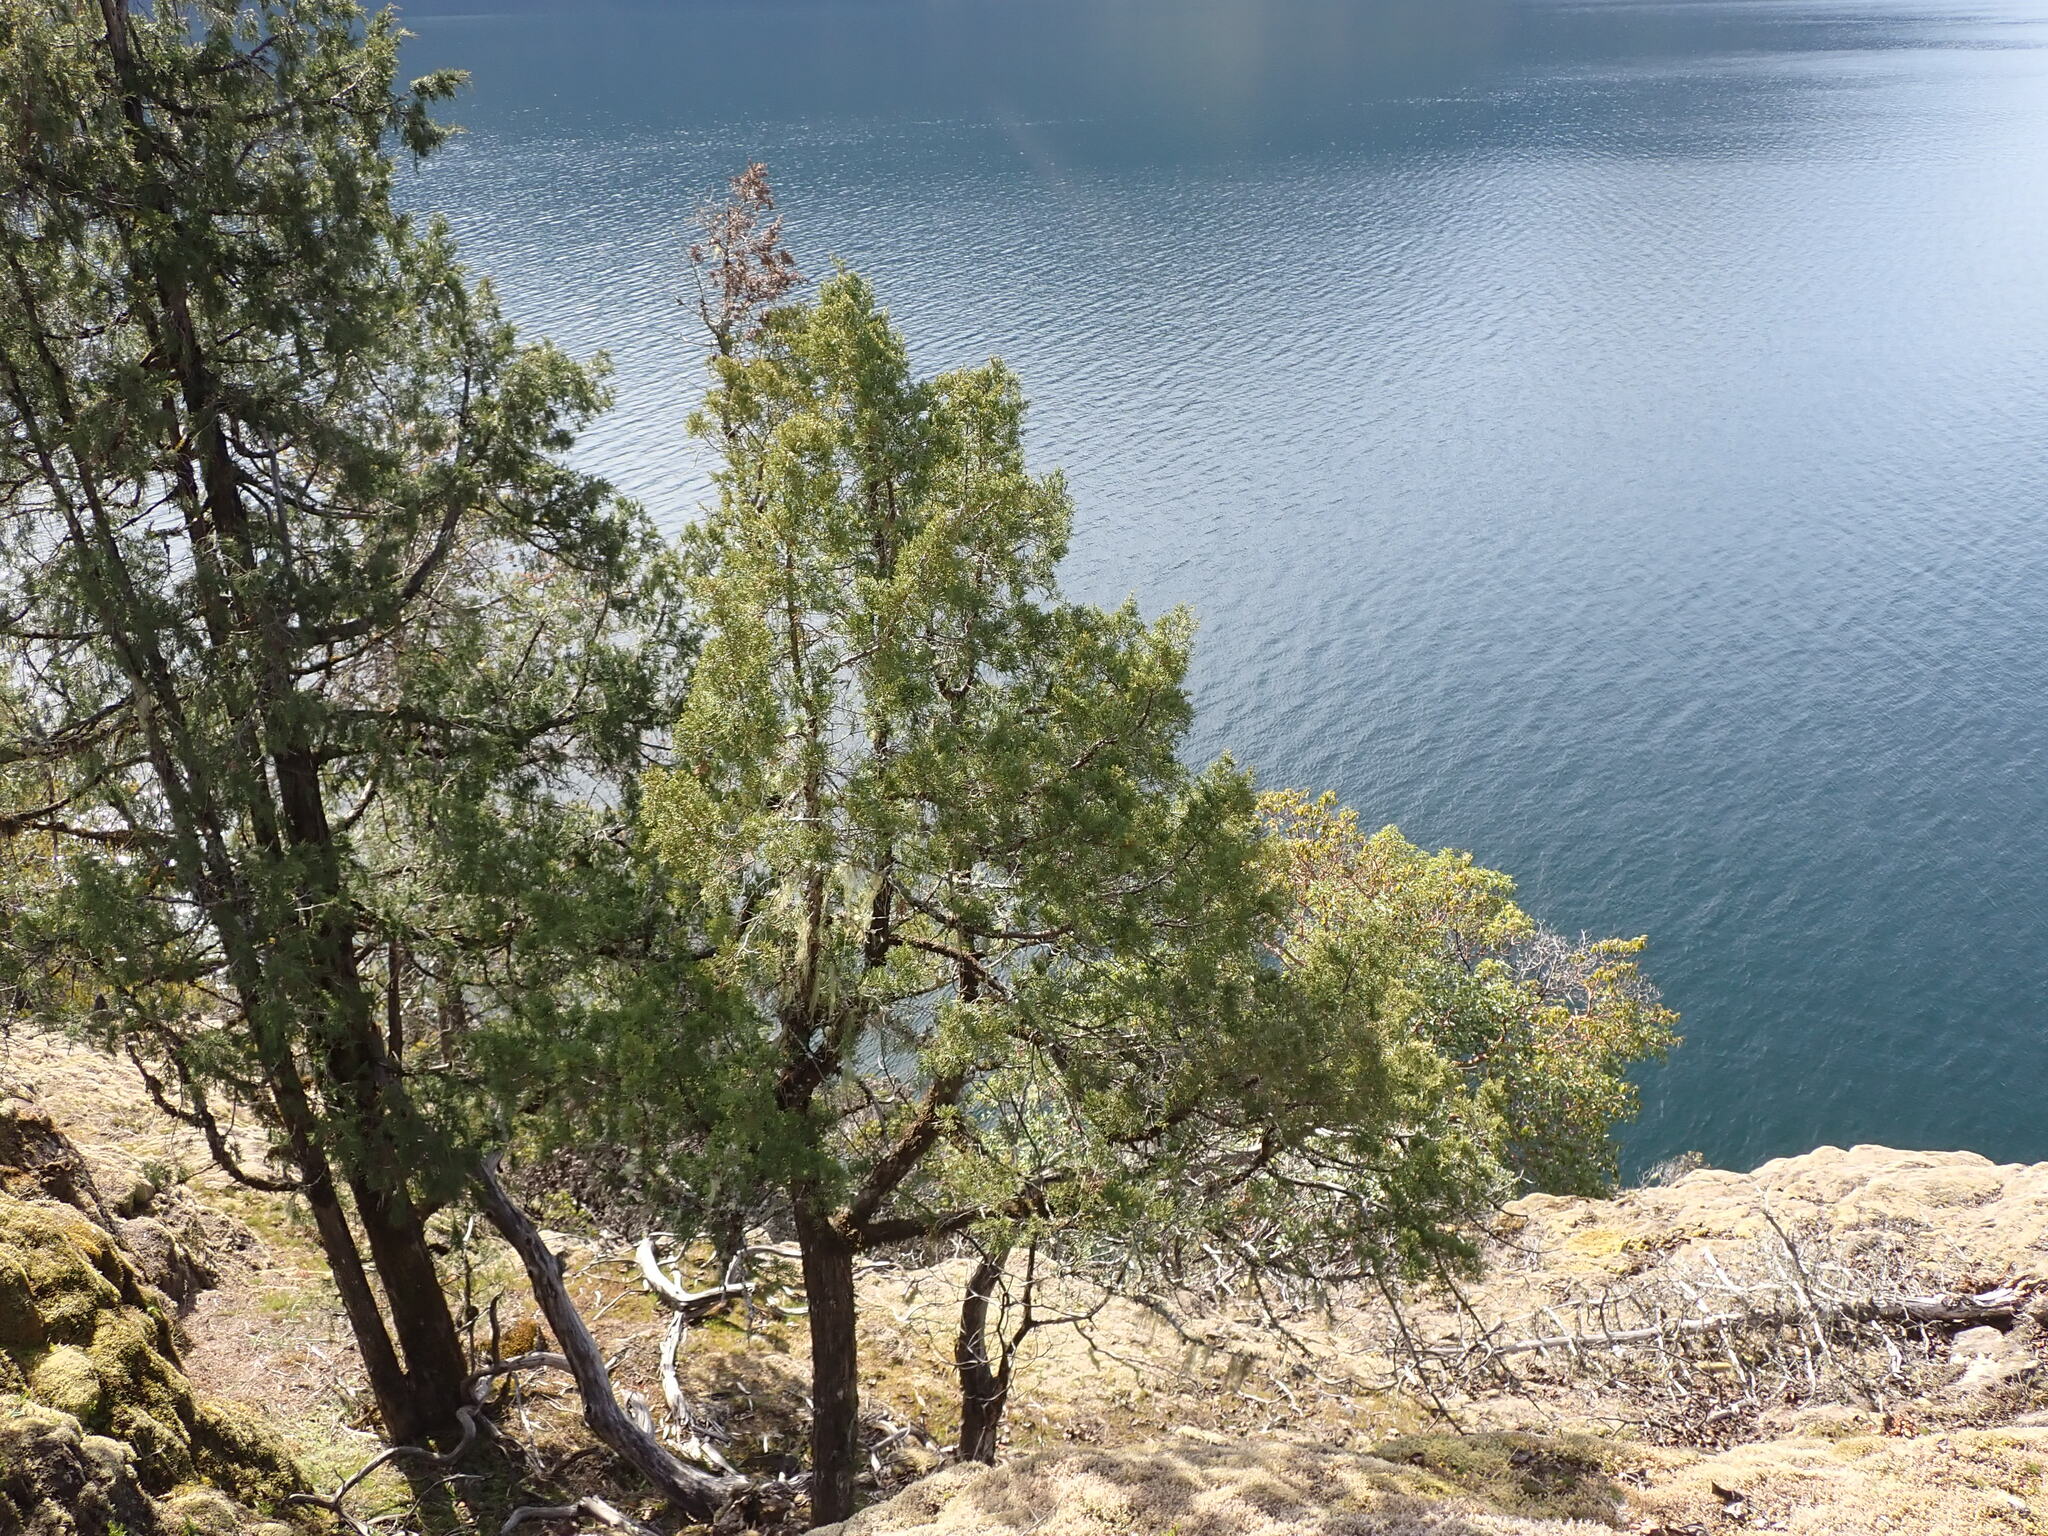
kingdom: Plantae
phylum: Tracheophyta
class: Pinopsida
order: Pinales
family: Cupressaceae
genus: Juniperus
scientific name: Juniperus scopulorum
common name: Rocky mountain juniper
